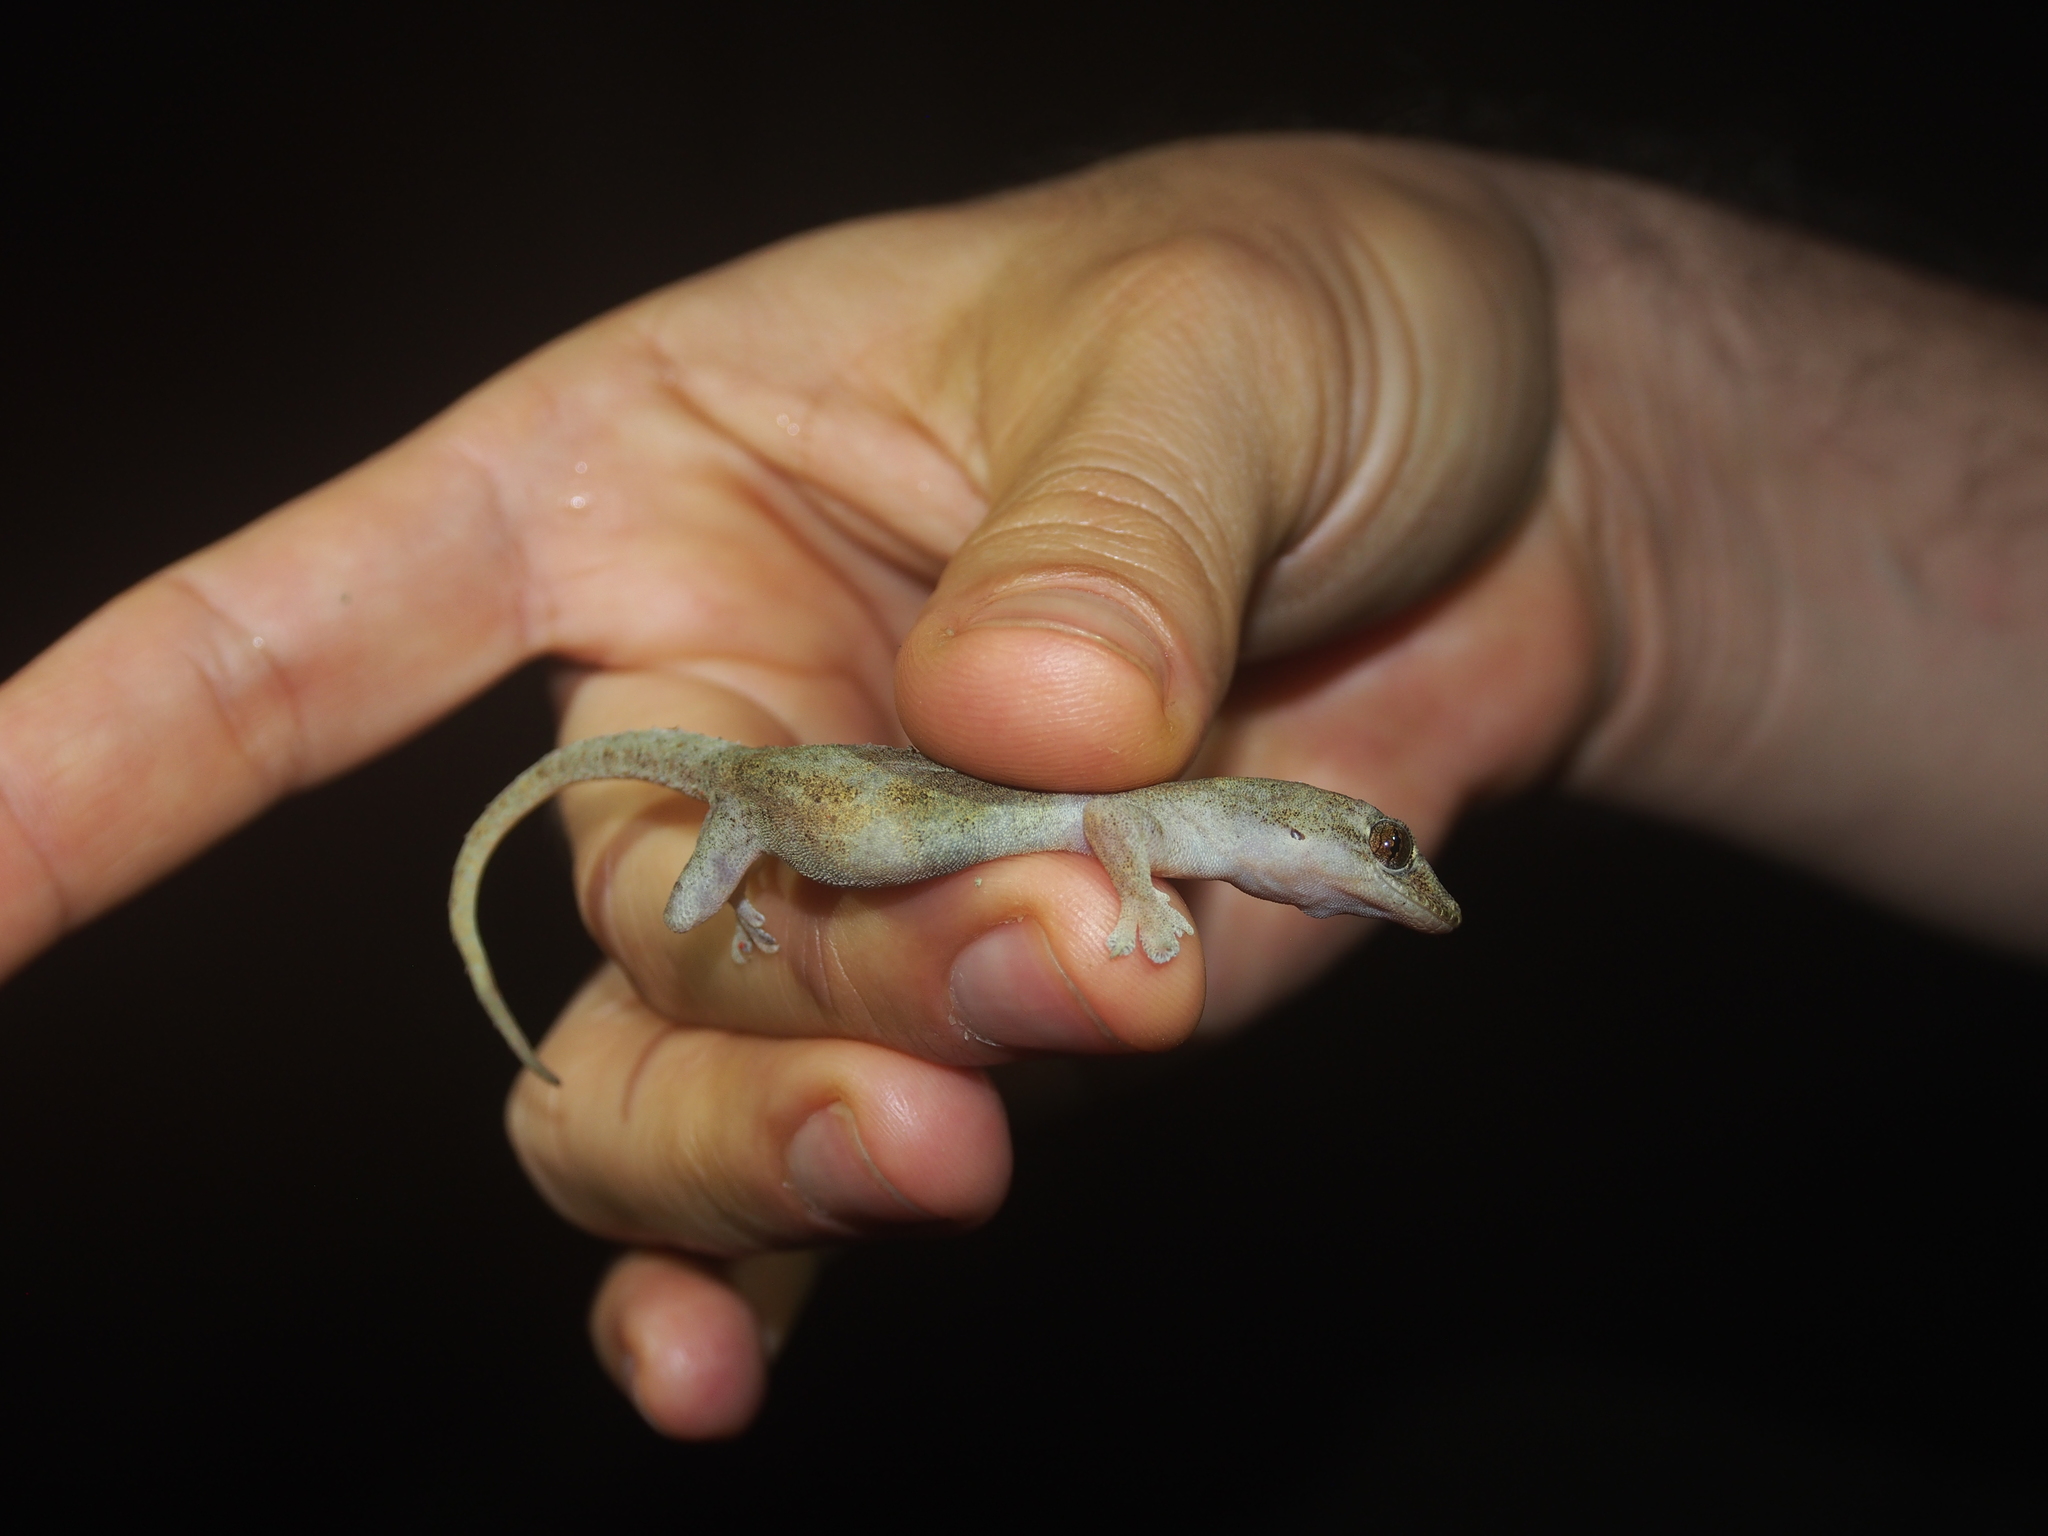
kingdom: Animalia
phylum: Chordata
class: Squamata
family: Gekkonidae
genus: Hemidactylus
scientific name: Hemidactylus frenatus
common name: Common house gecko
